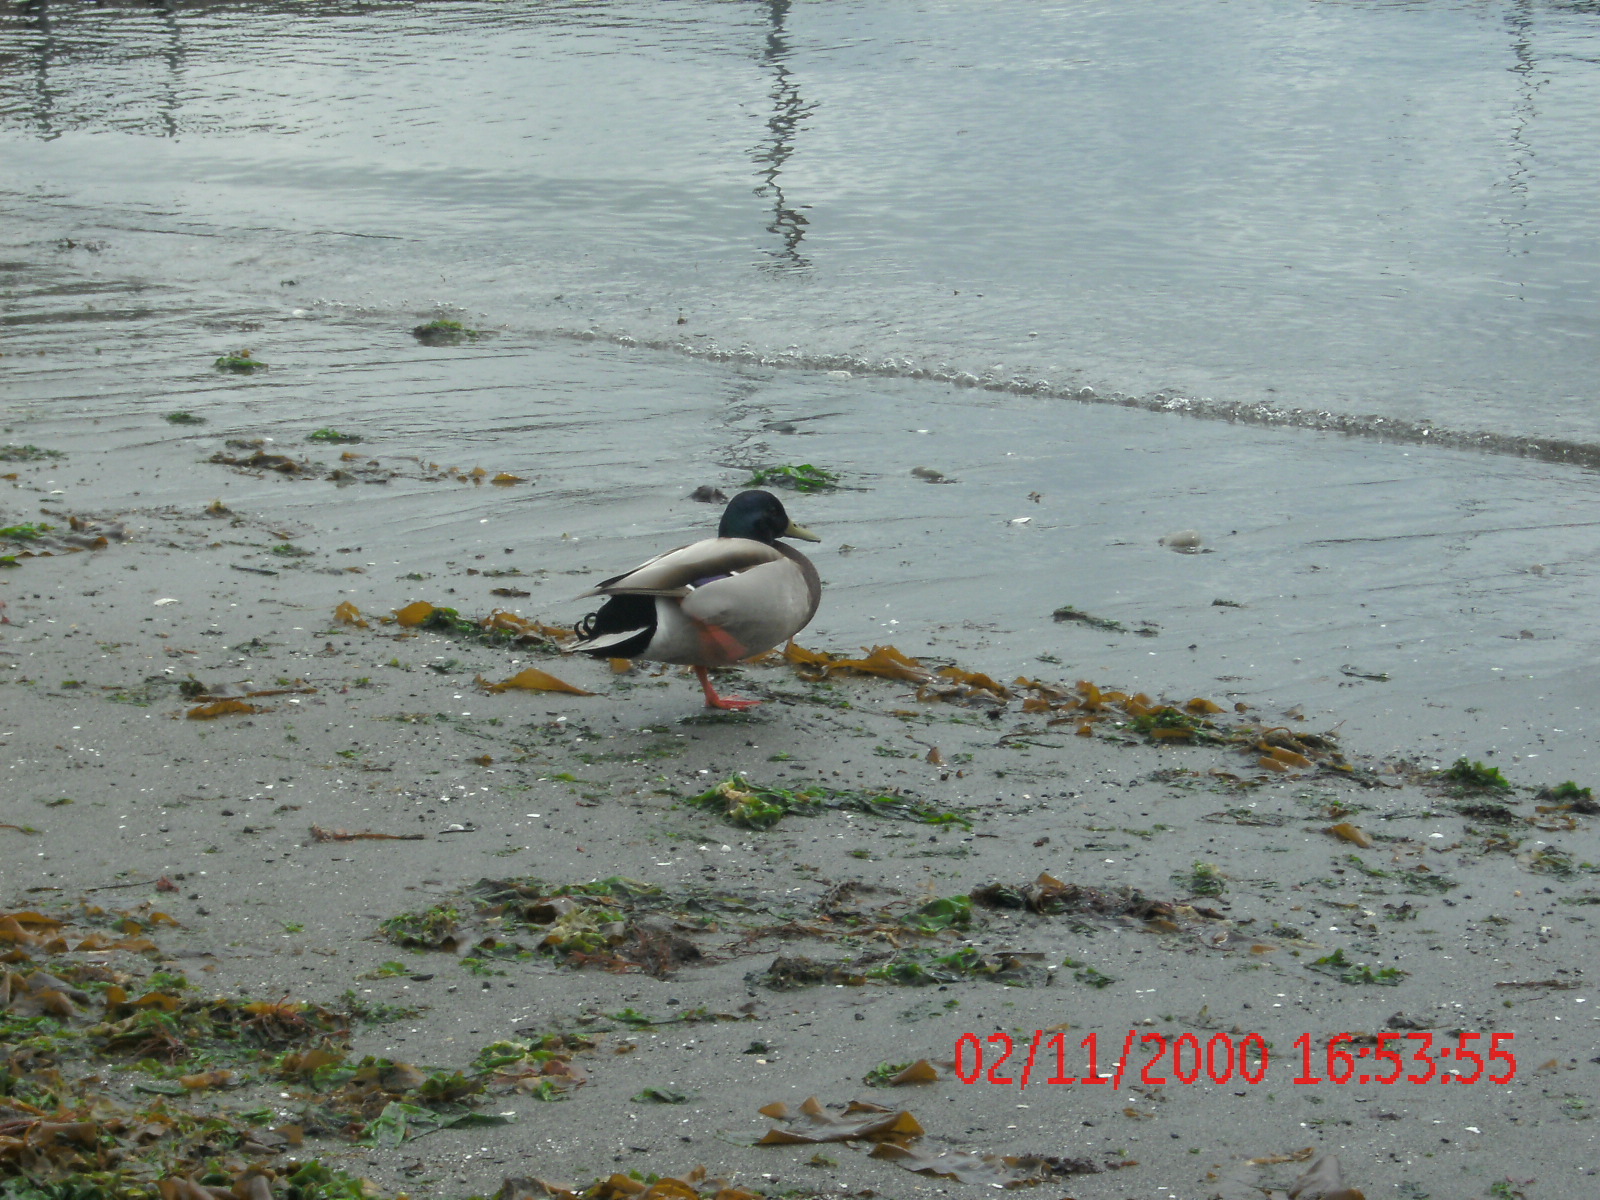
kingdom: Animalia
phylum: Chordata
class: Aves
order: Anseriformes
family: Anatidae
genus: Anas
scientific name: Anas platyrhynchos
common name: Mallard
